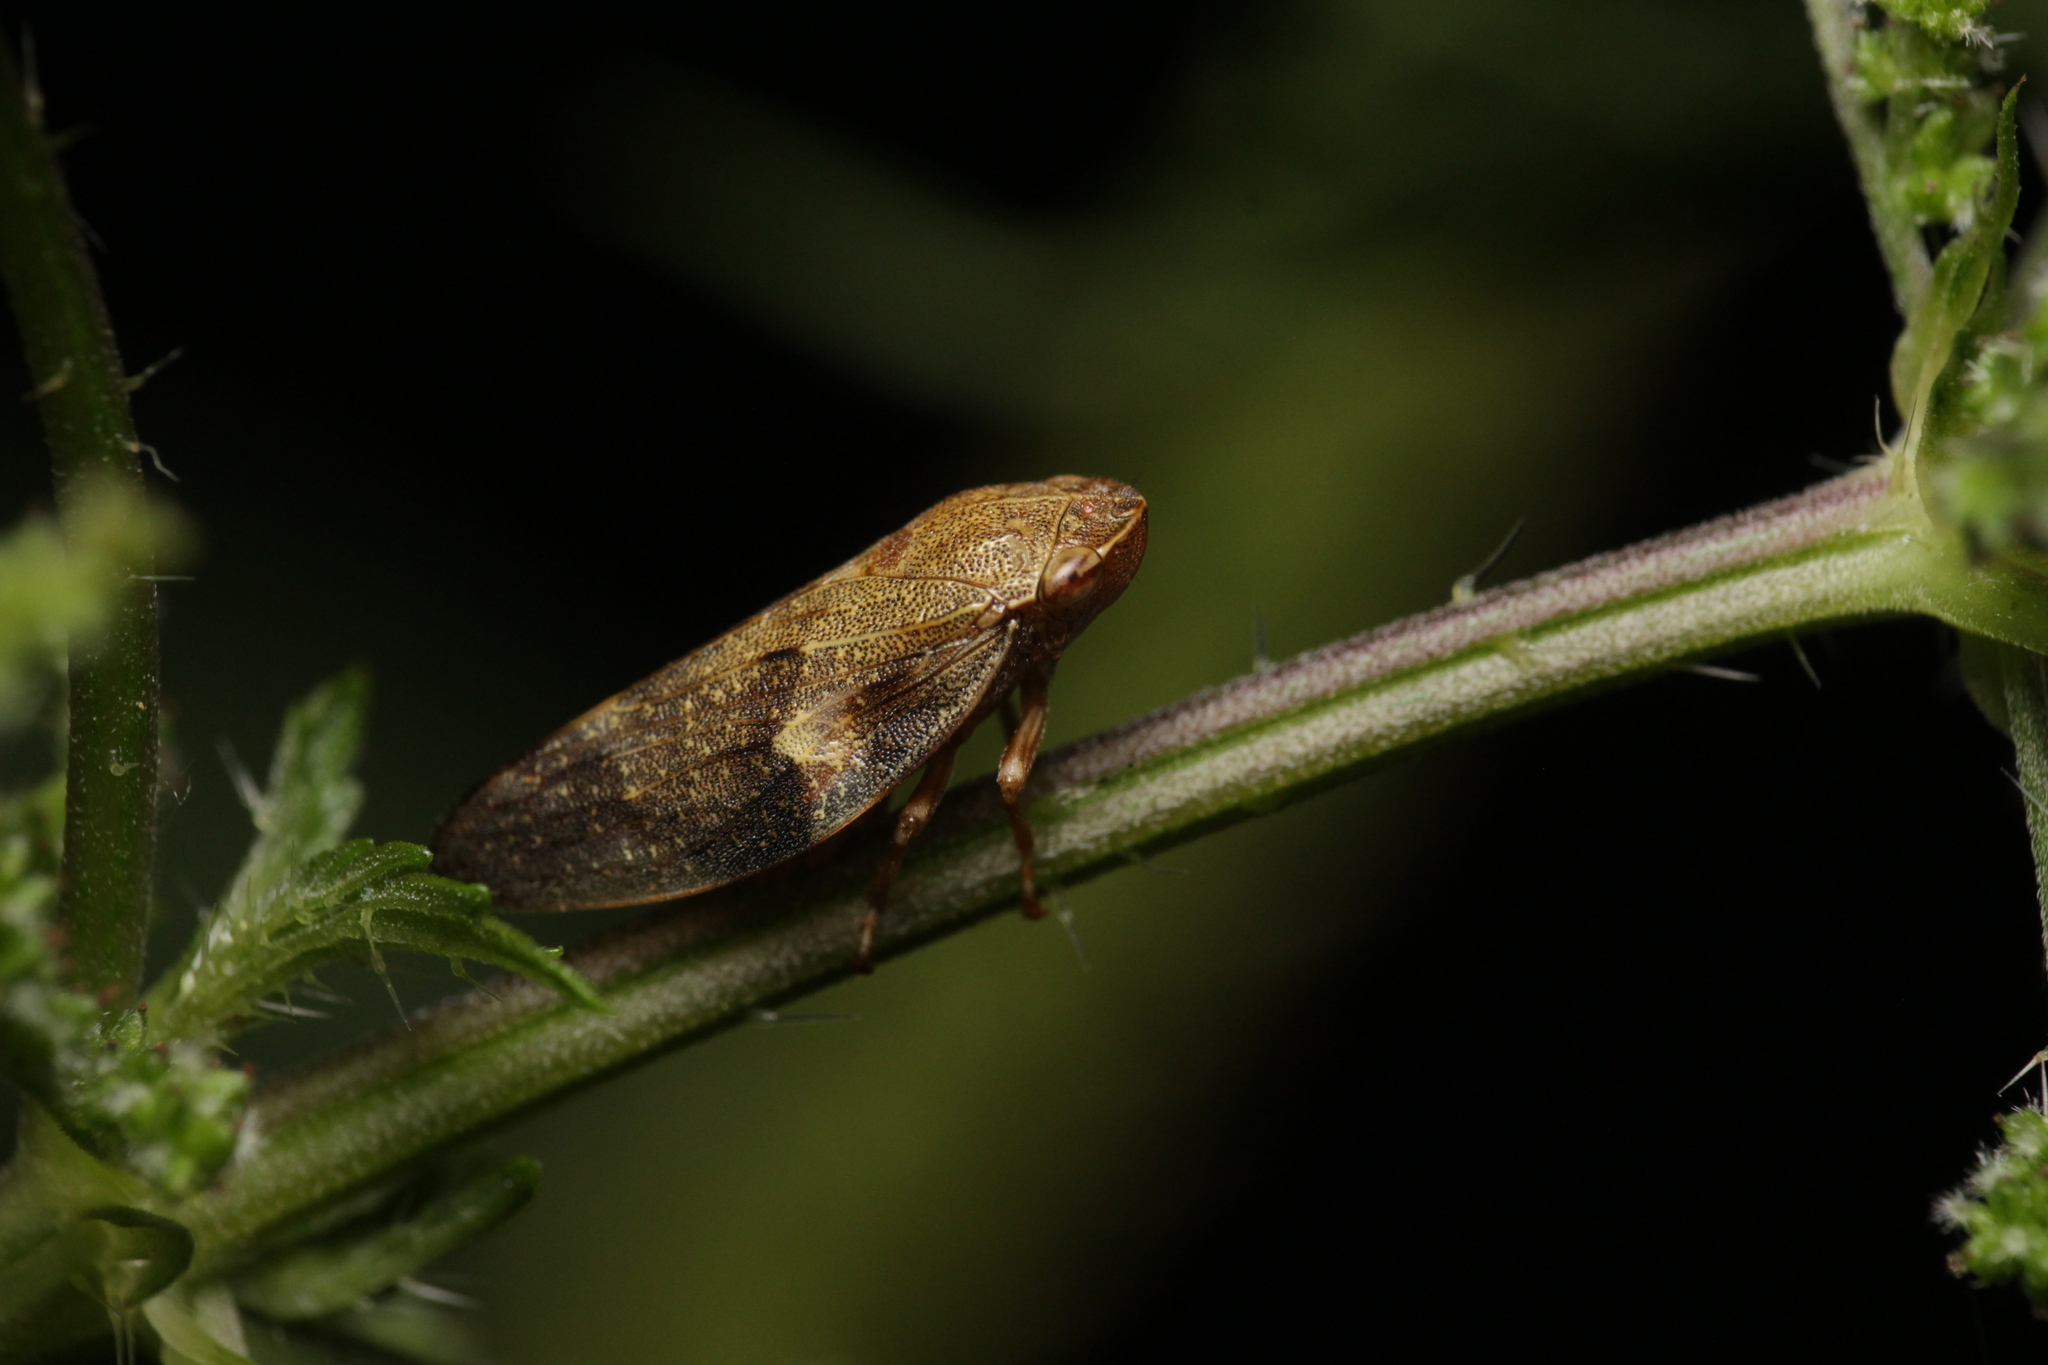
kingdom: Animalia
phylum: Arthropoda
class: Insecta
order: Hemiptera
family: Aphrophoridae
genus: Aphrophora
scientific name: Aphrophora alni
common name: European alder spittlebug
